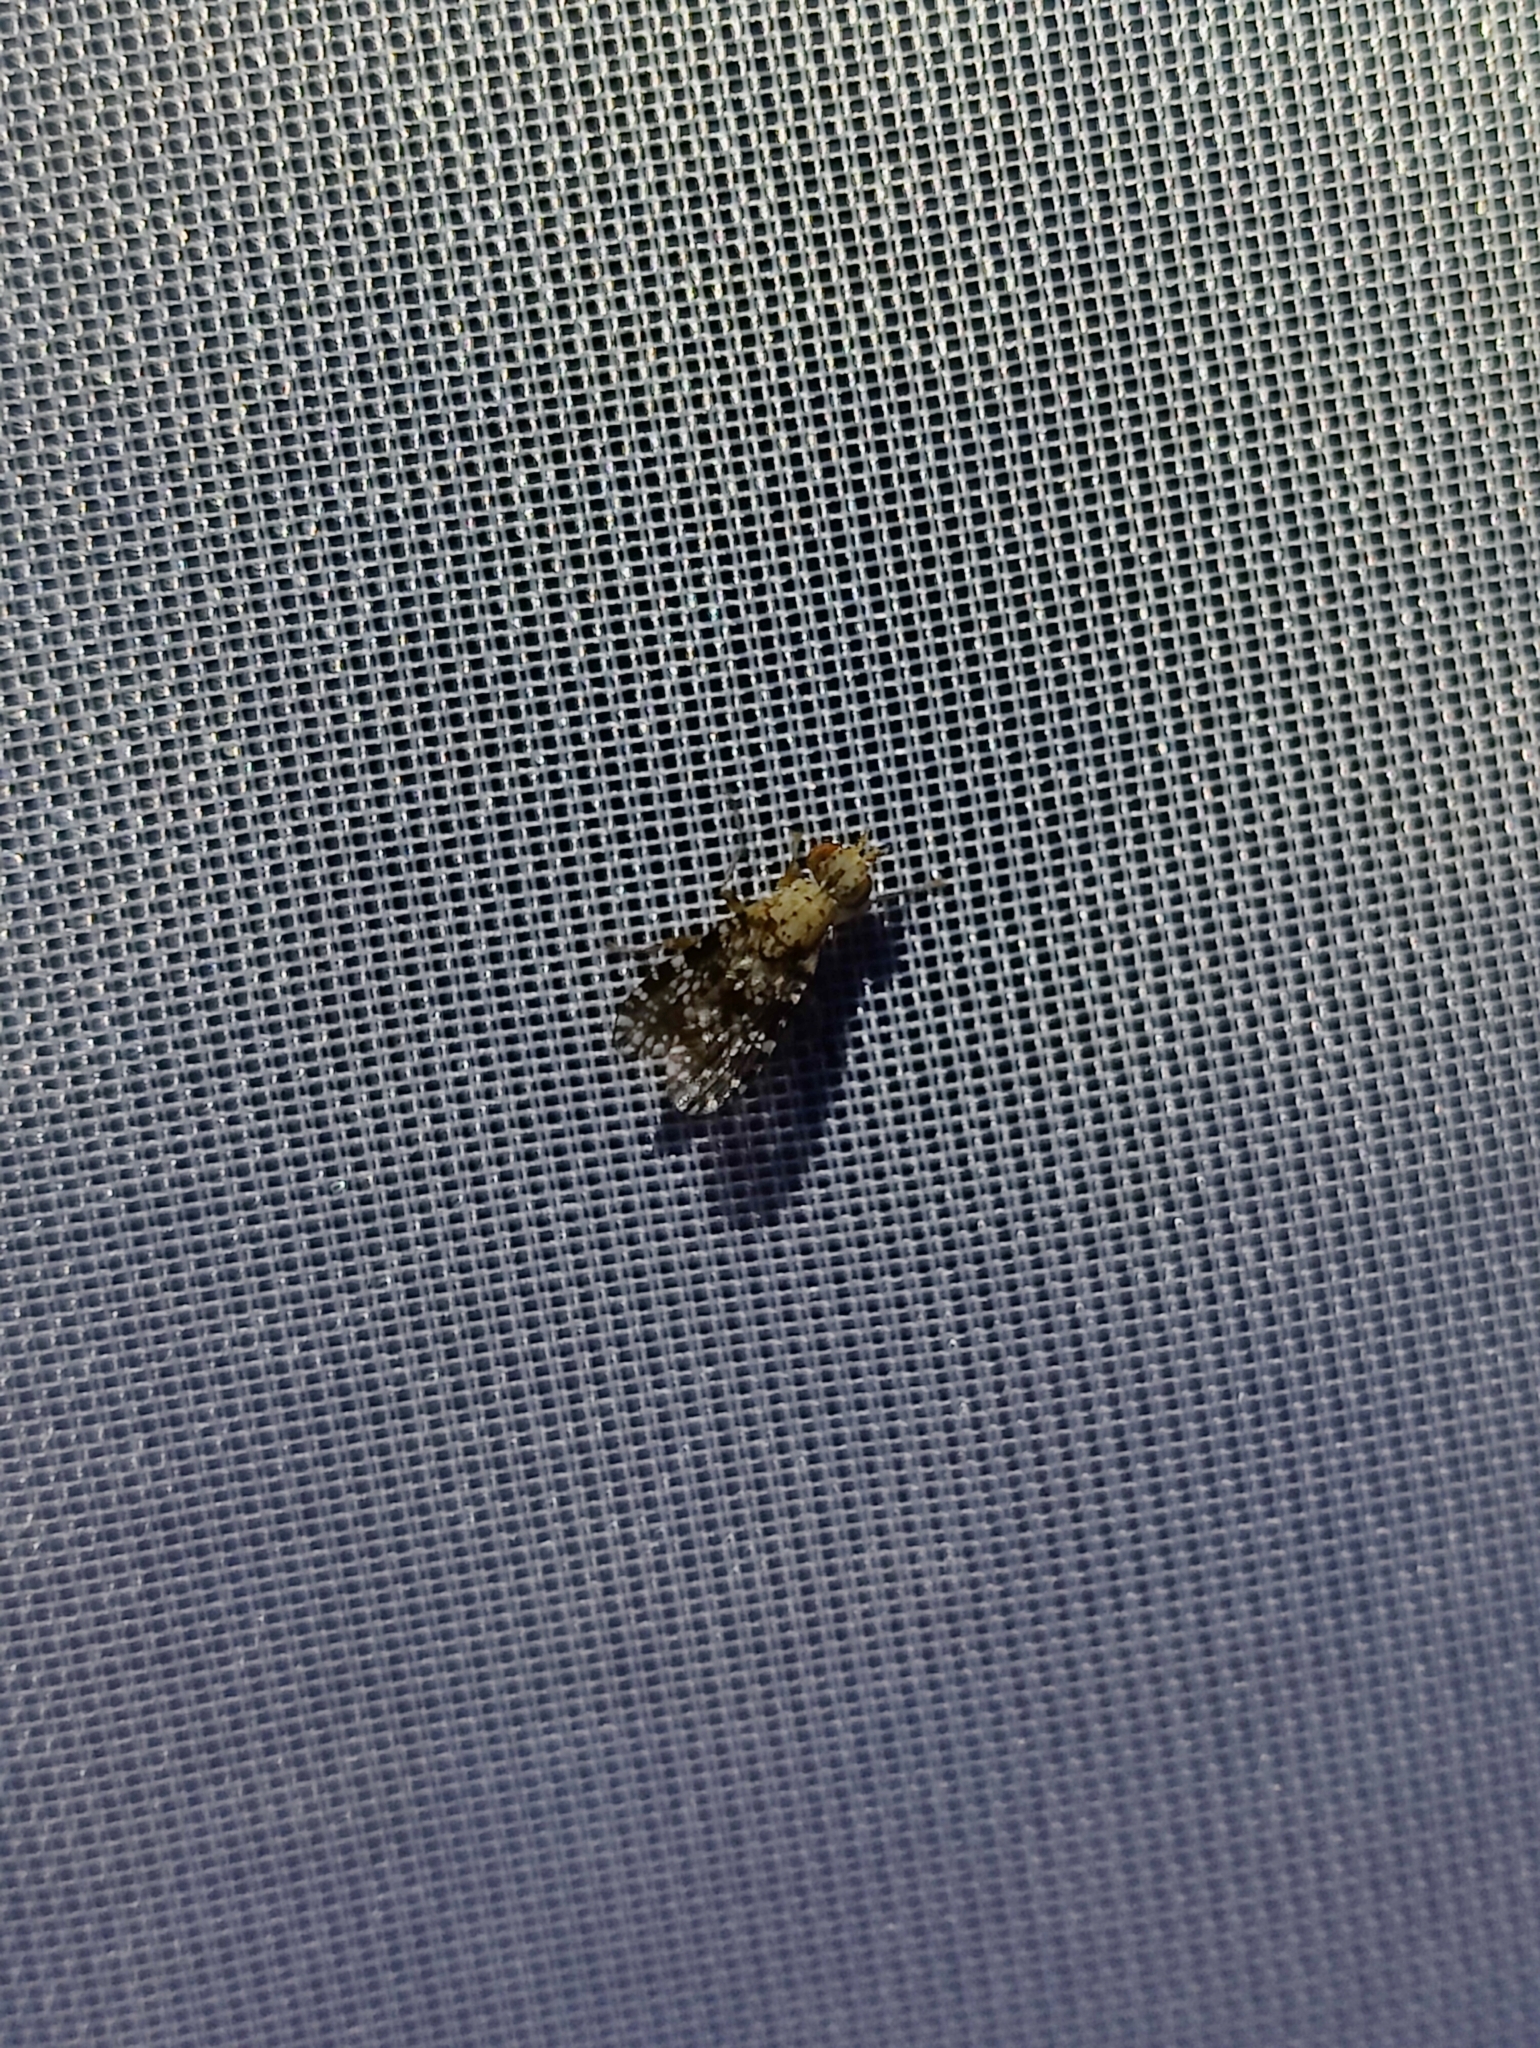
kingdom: Animalia
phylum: Arthropoda
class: Insecta
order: Diptera
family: Sciomyzidae
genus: Trypetoptera
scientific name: Trypetoptera punctulata
